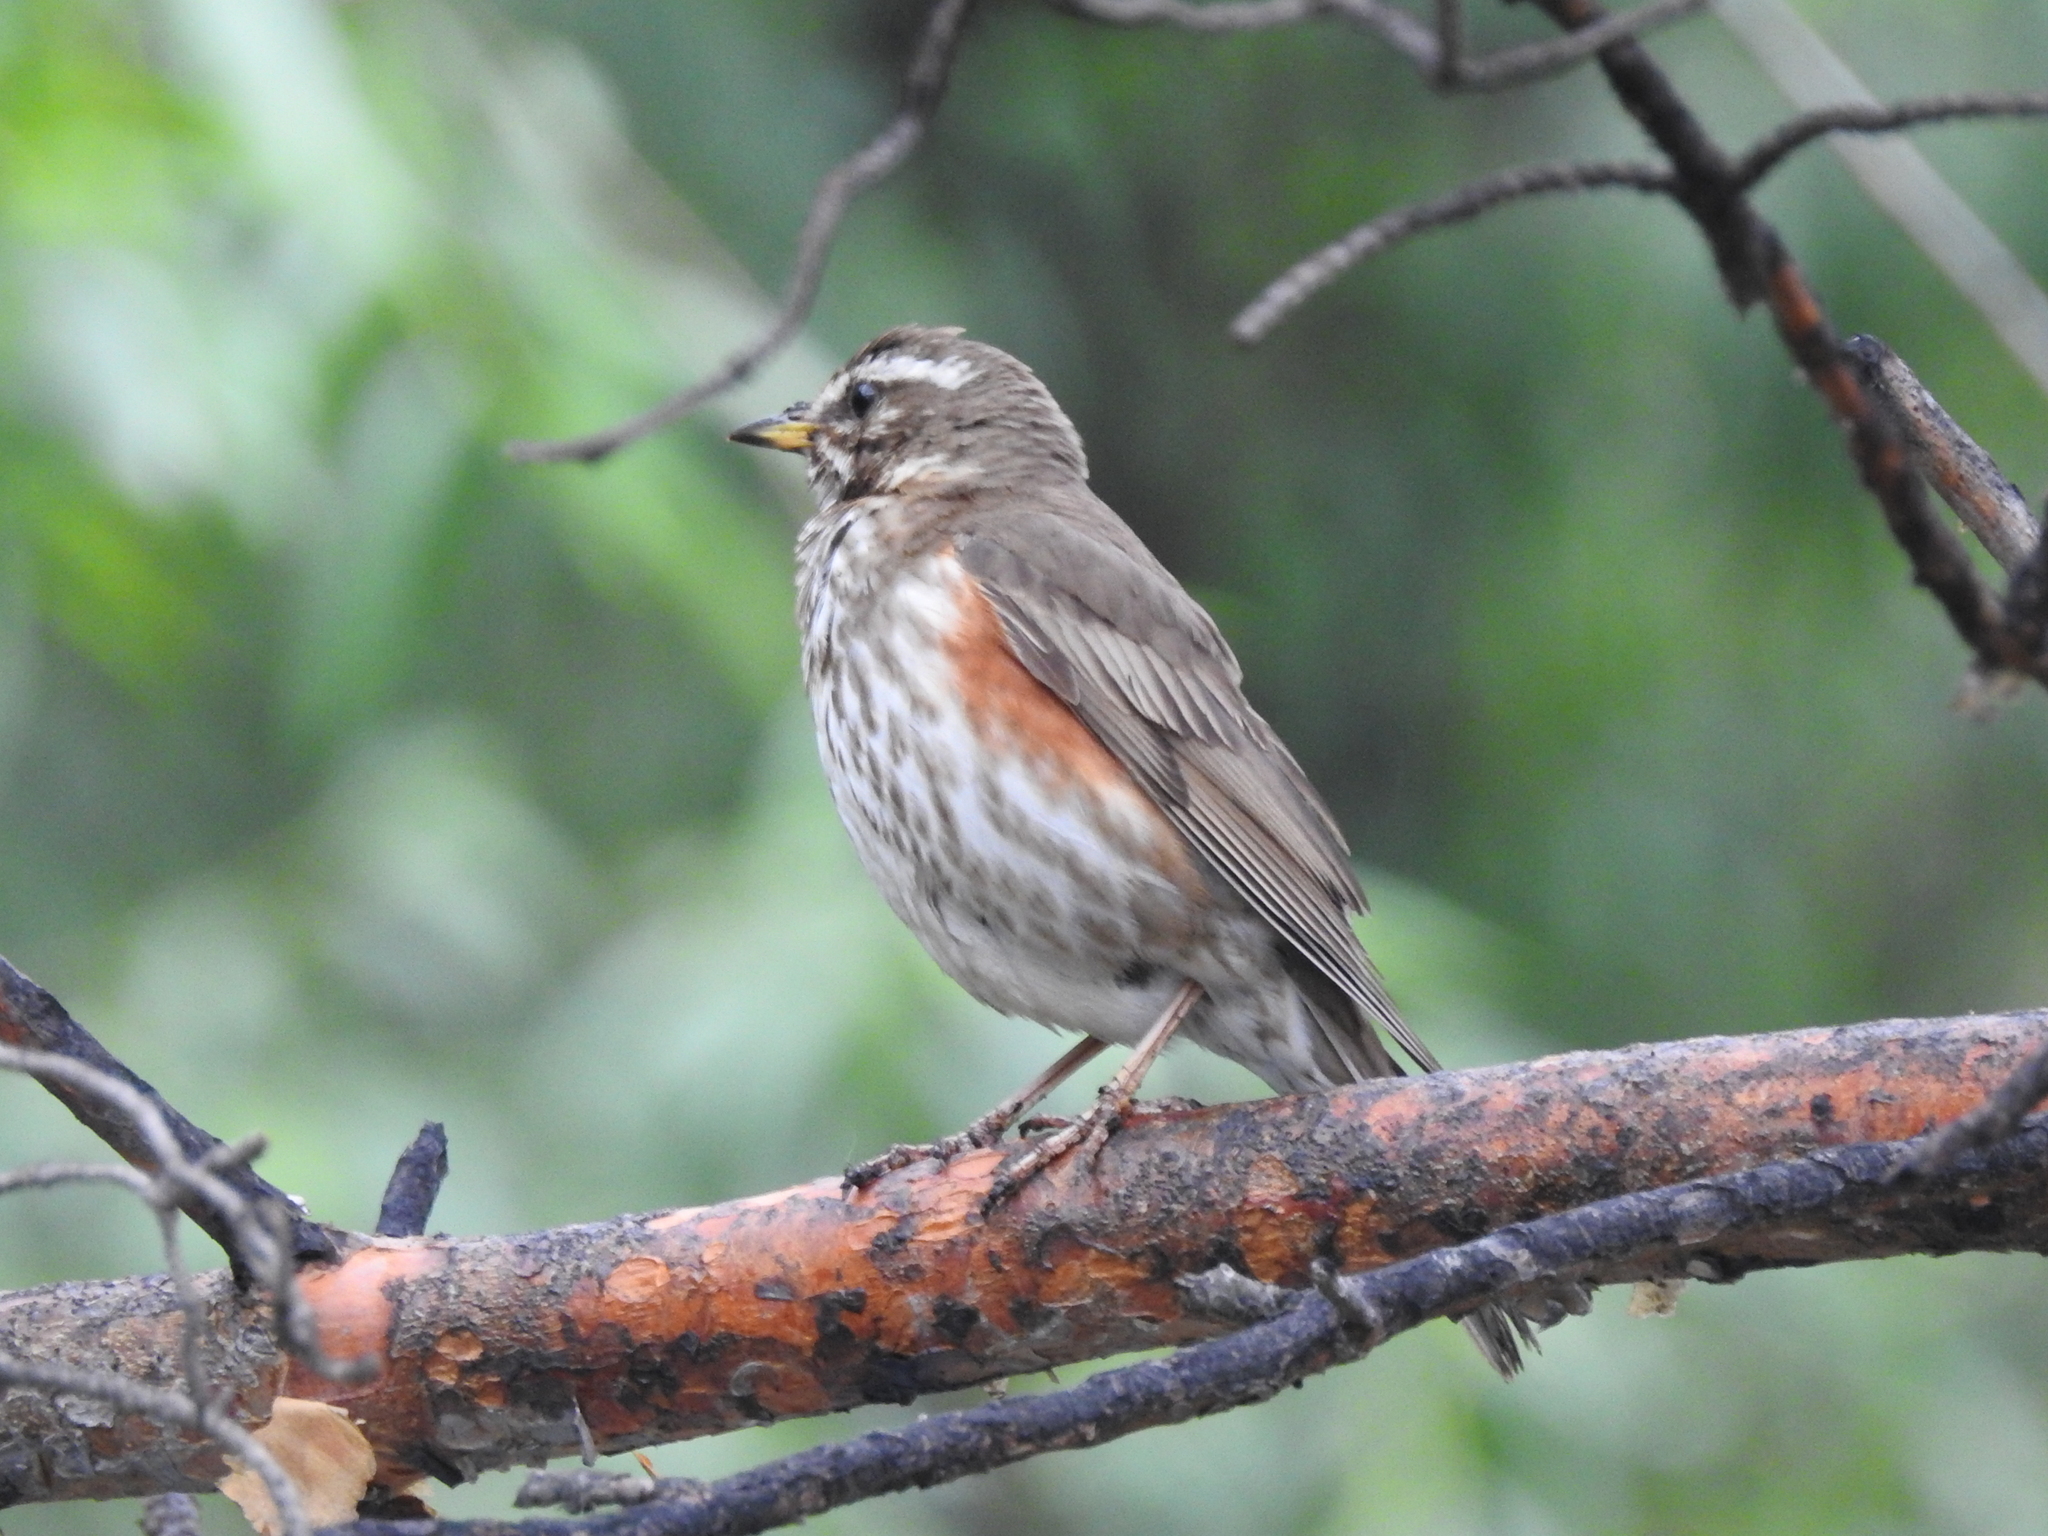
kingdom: Animalia
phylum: Chordata
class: Aves
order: Passeriformes
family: Turdidae
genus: Turdus
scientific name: Turdus iliacus
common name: Redwing
